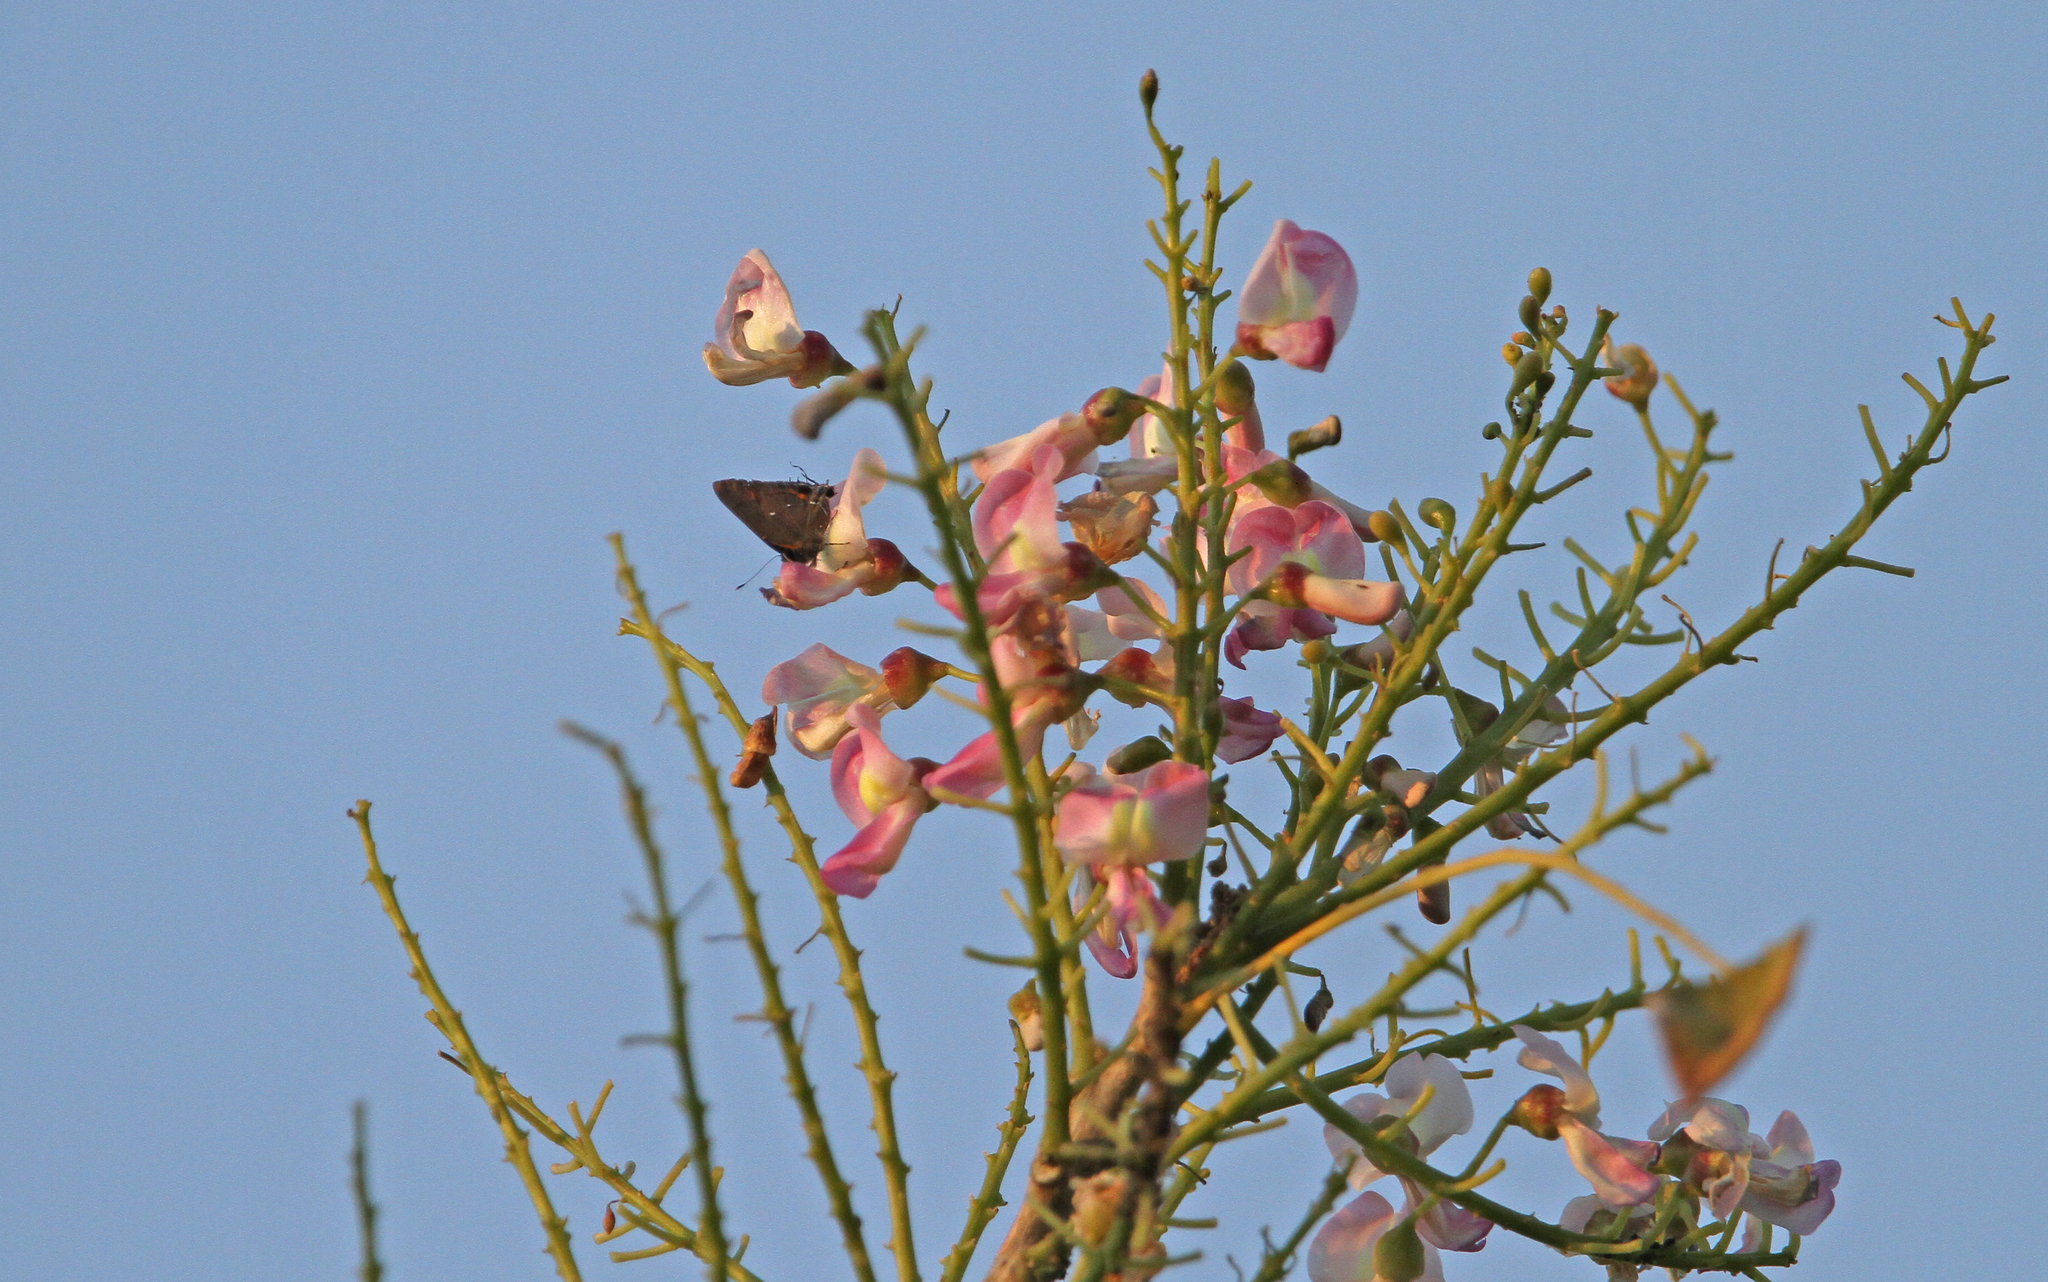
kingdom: Animalia
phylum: Arthropoda
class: Insecta
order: Lepidoptera
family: Lycaenidae
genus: Thecla
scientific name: Thecla angelia
